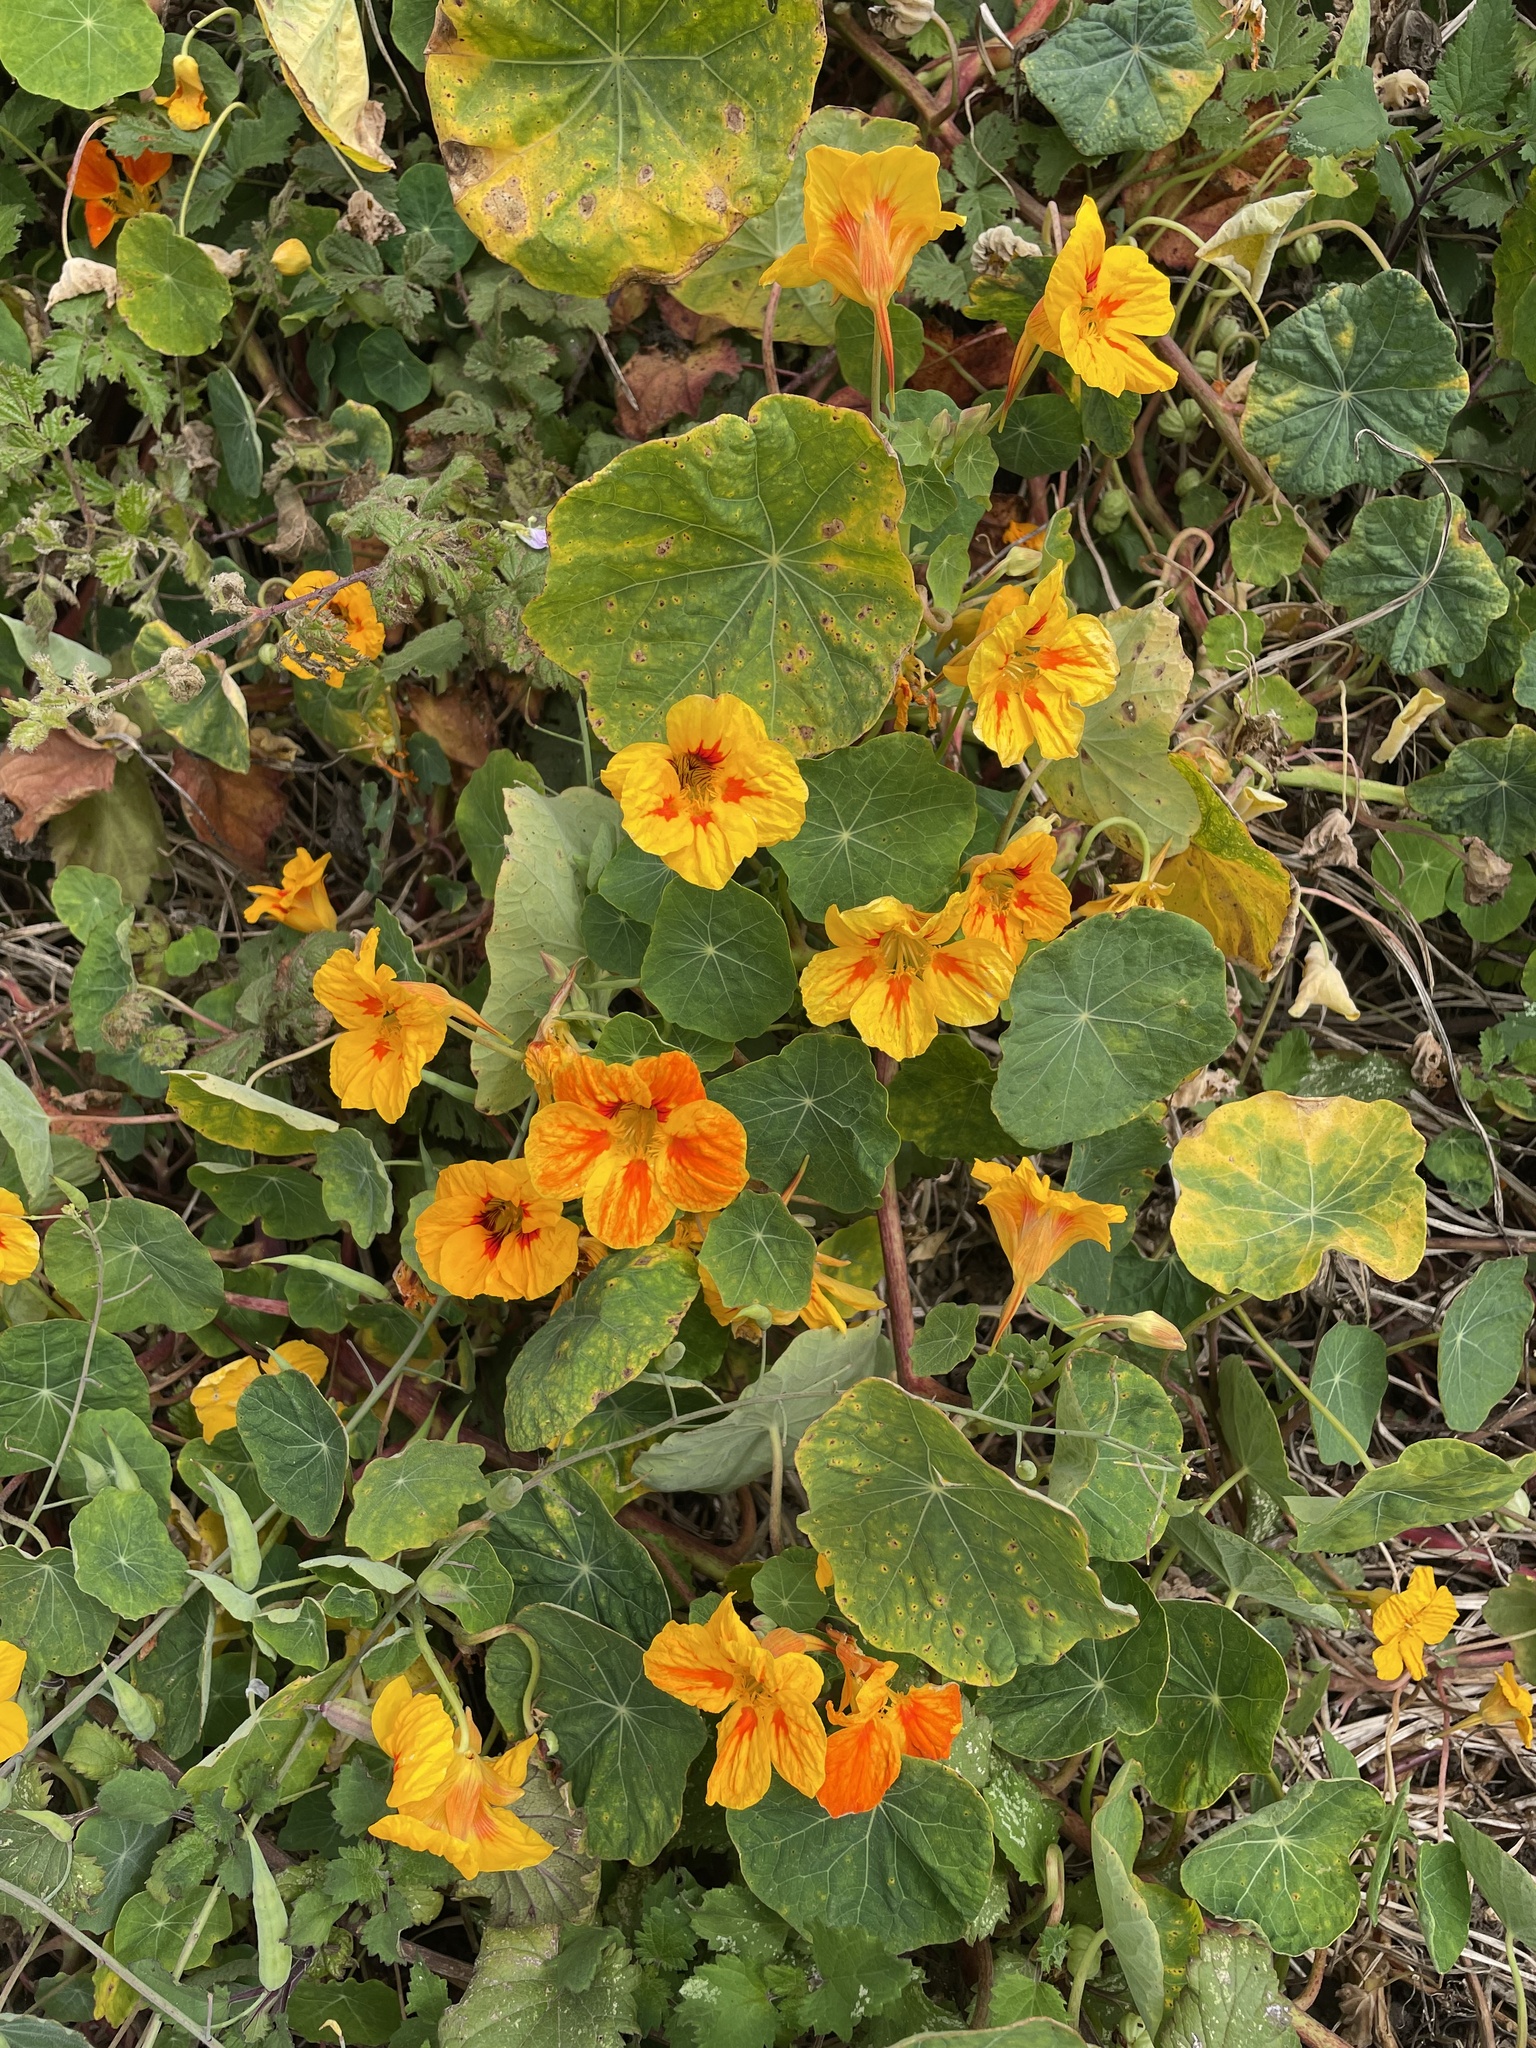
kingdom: Plantae
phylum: Tracheophyta
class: Magnoliopsida
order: Brassicales
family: Tropaeolaceae
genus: Tropaeolum
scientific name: Tropaeolum majus
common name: Nasturtium
